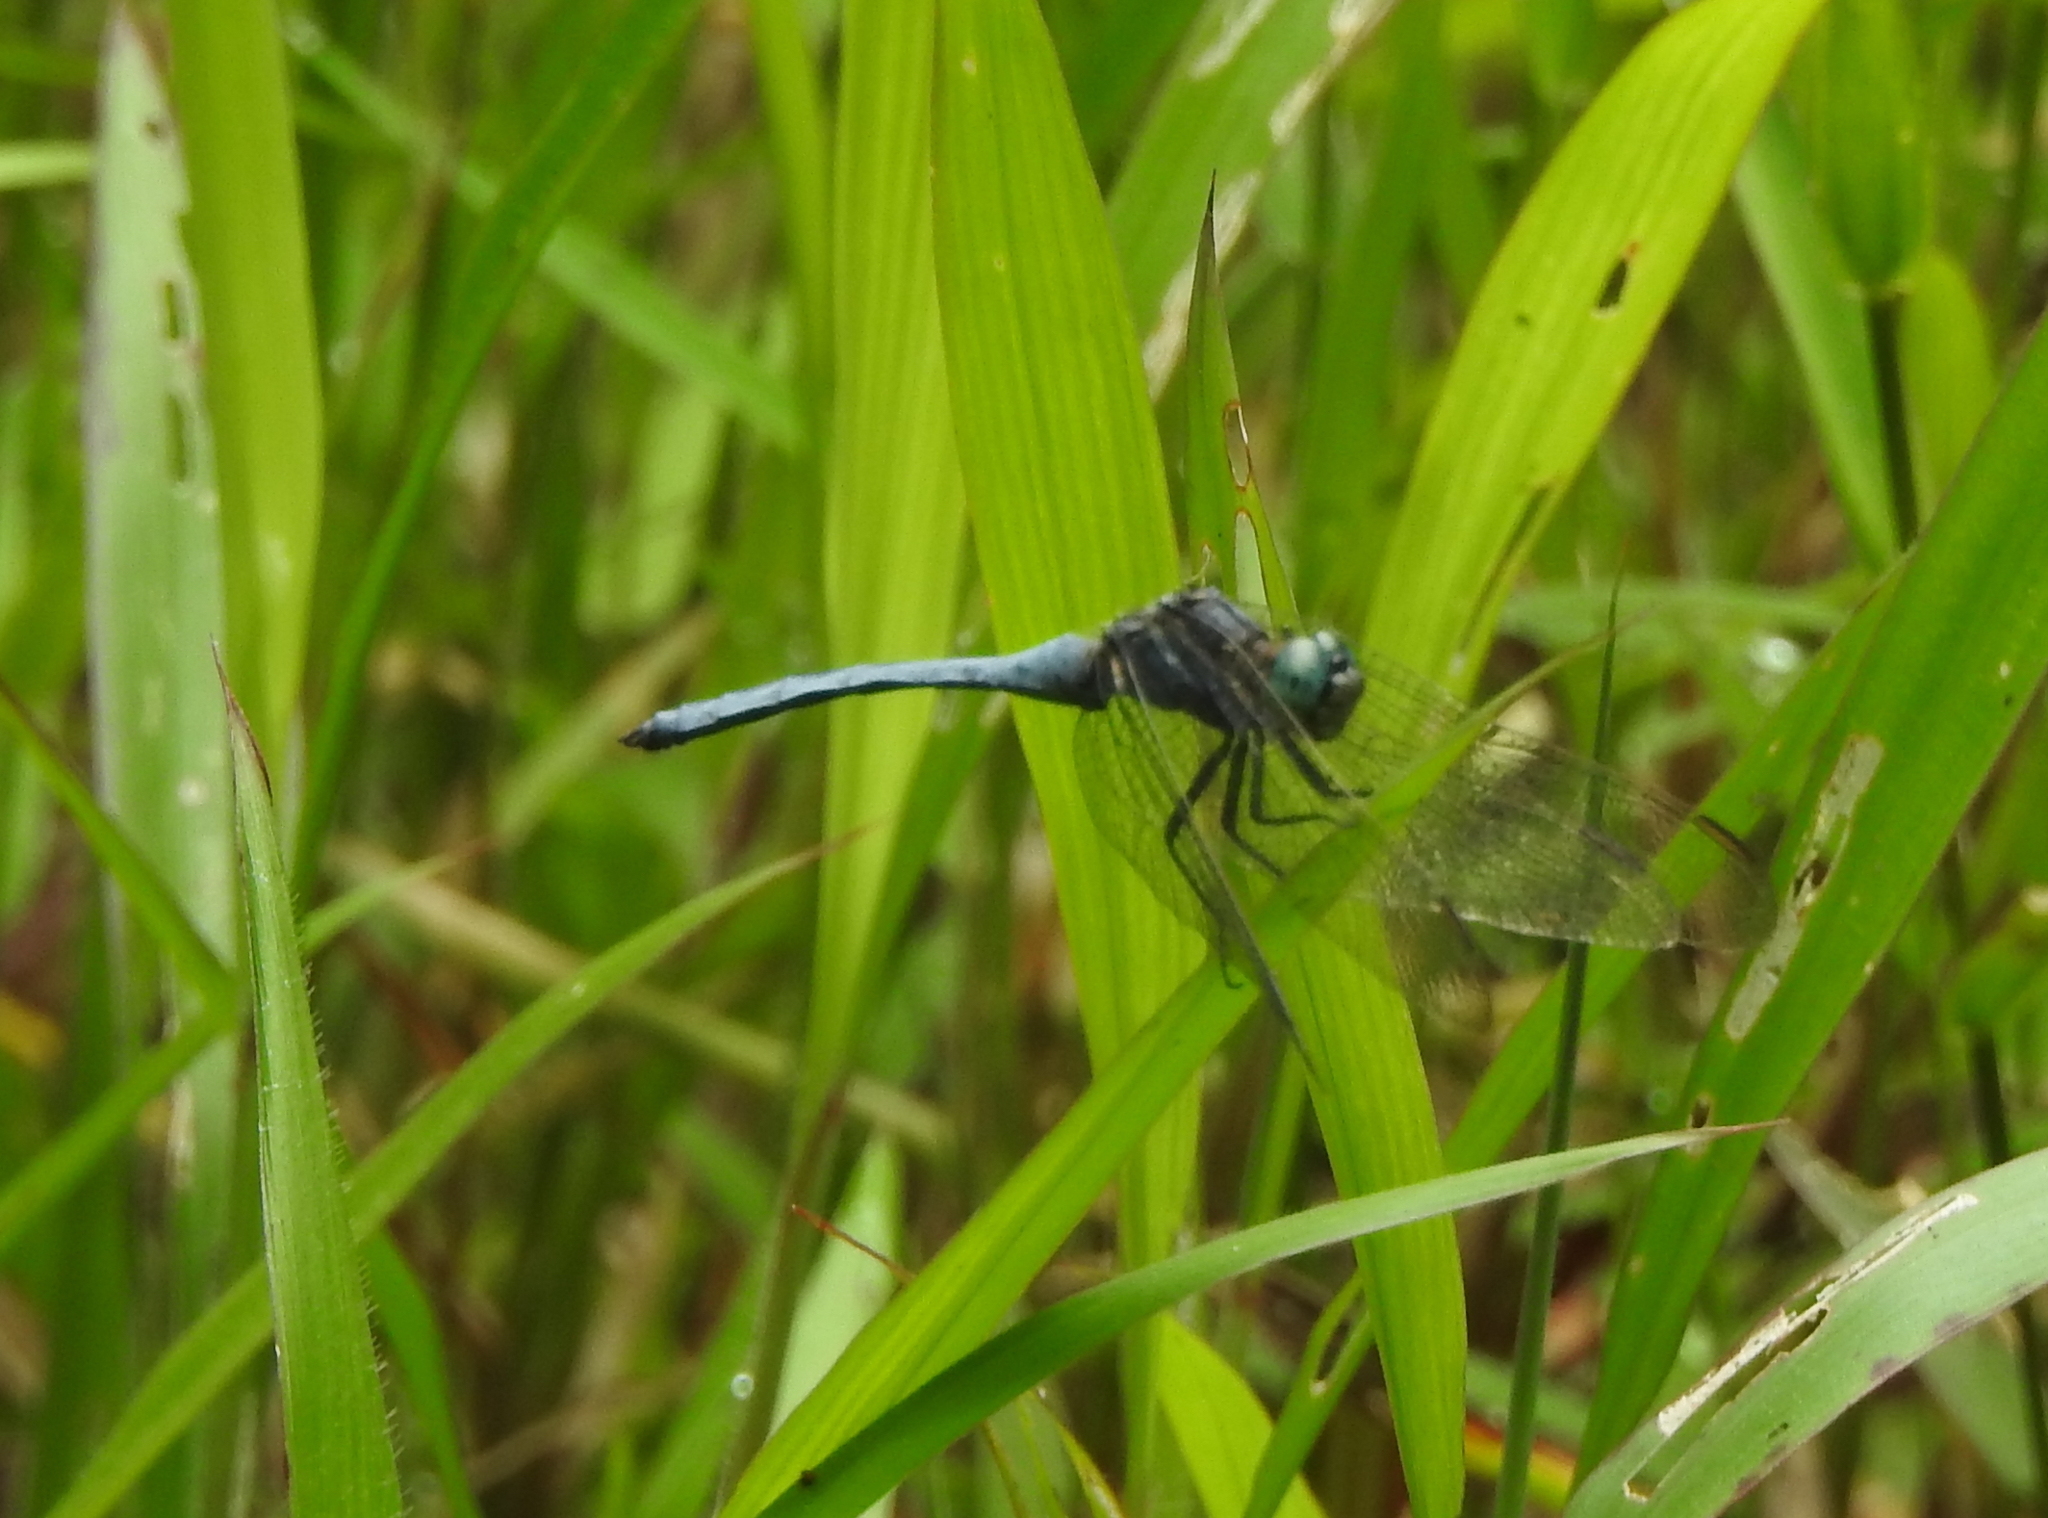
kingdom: Animalia
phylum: Arthropoda
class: Insecta
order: Odonata
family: Libellulidae
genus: Orthetrum
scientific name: Orthetrum luzonicum
